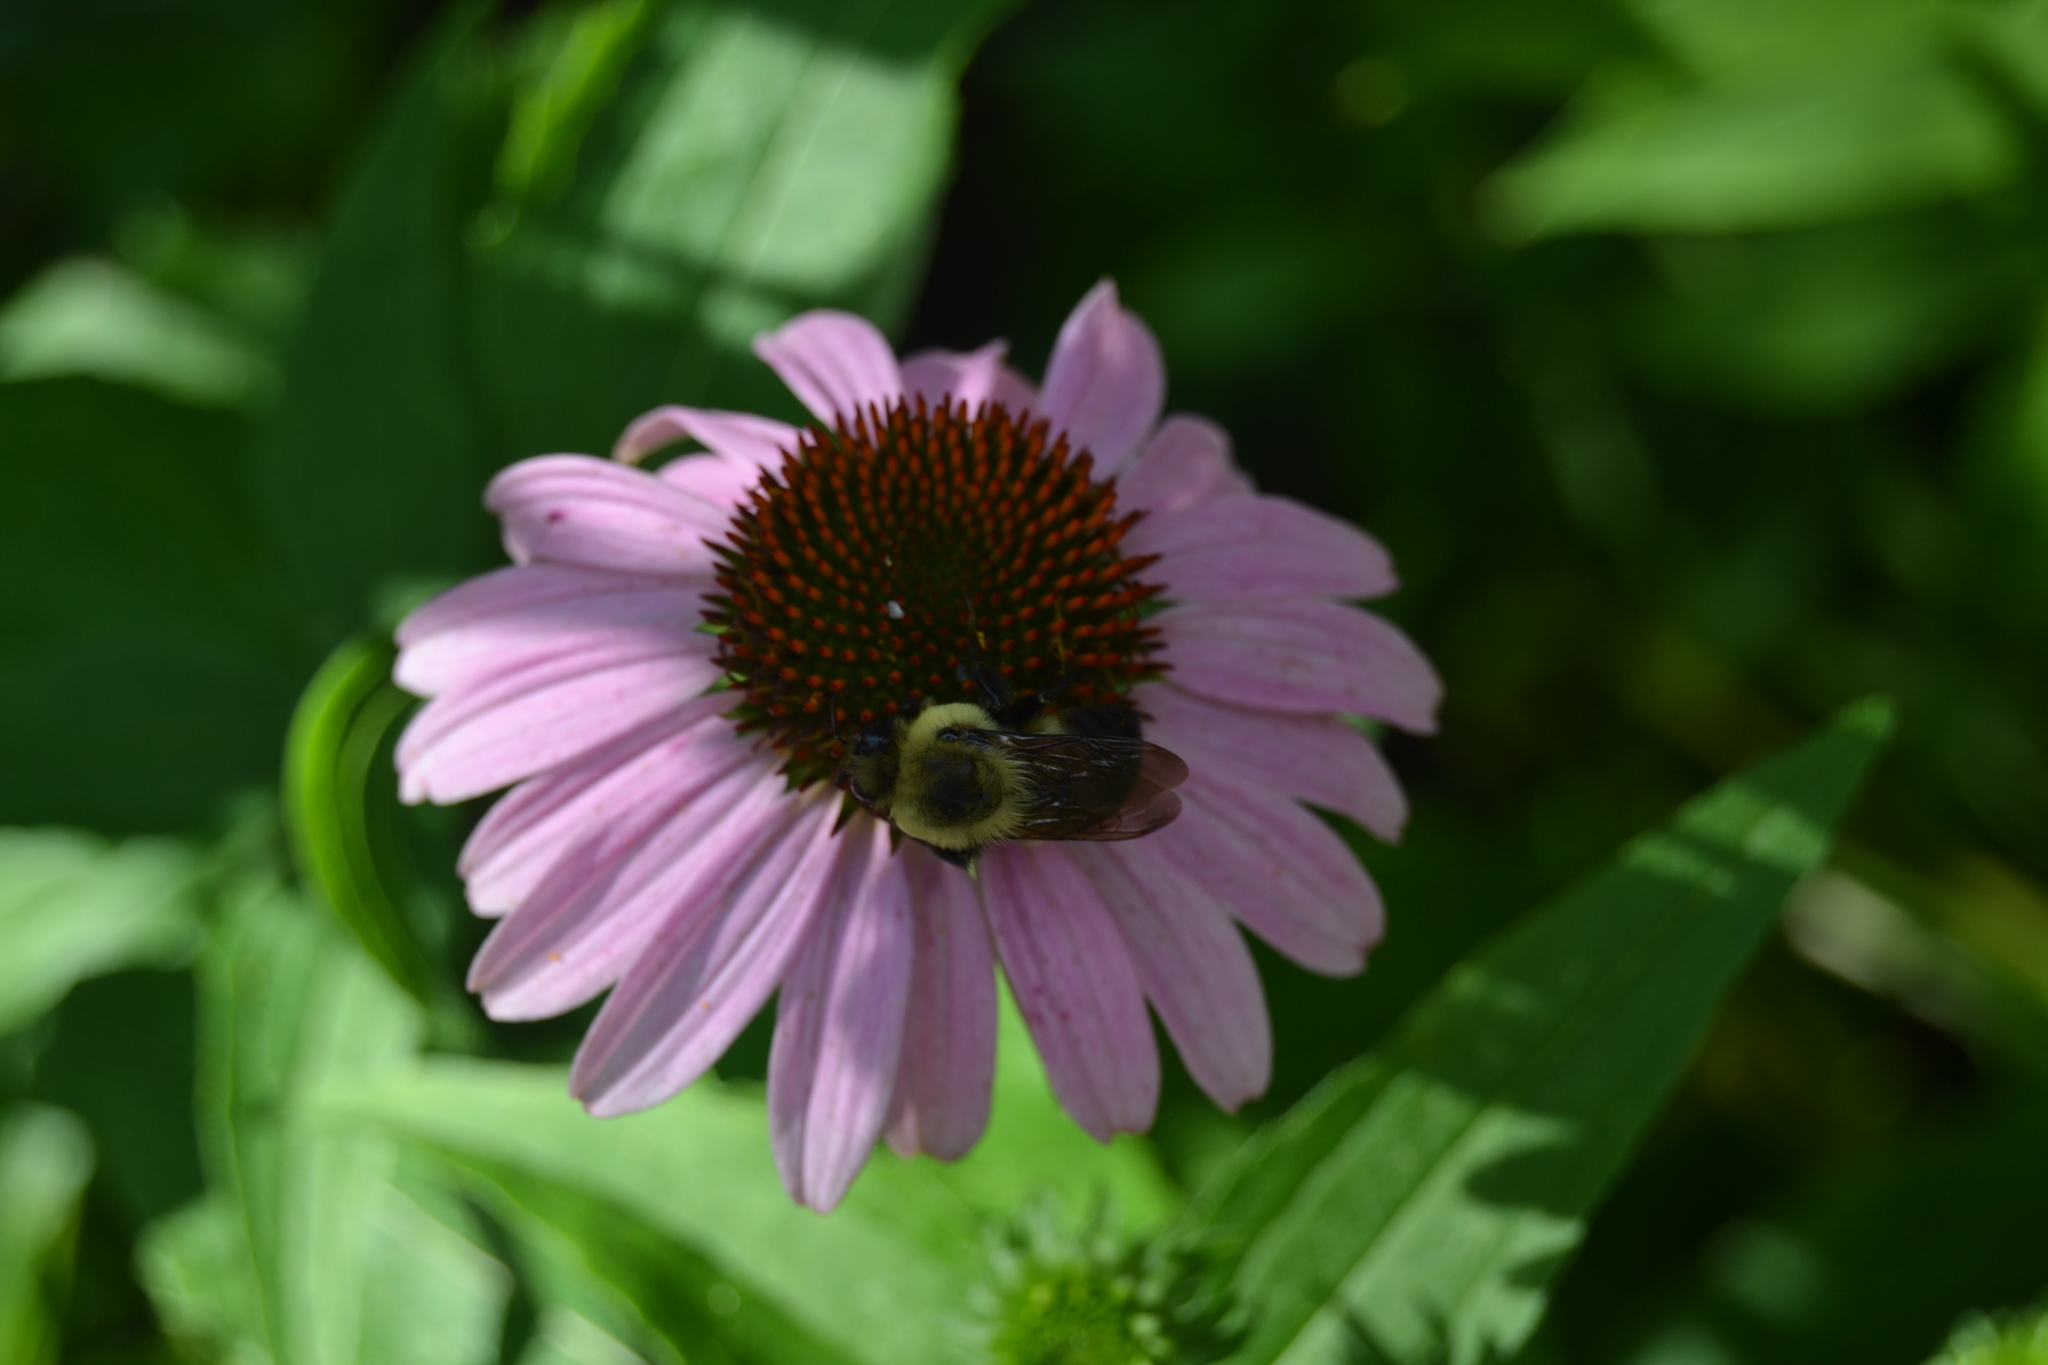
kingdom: Animalia
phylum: Arthropoda
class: Insecta
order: Hymenoptera
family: Apidae
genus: Bombus
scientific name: Bombus griseocollis
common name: Brown-belted bumble bee
